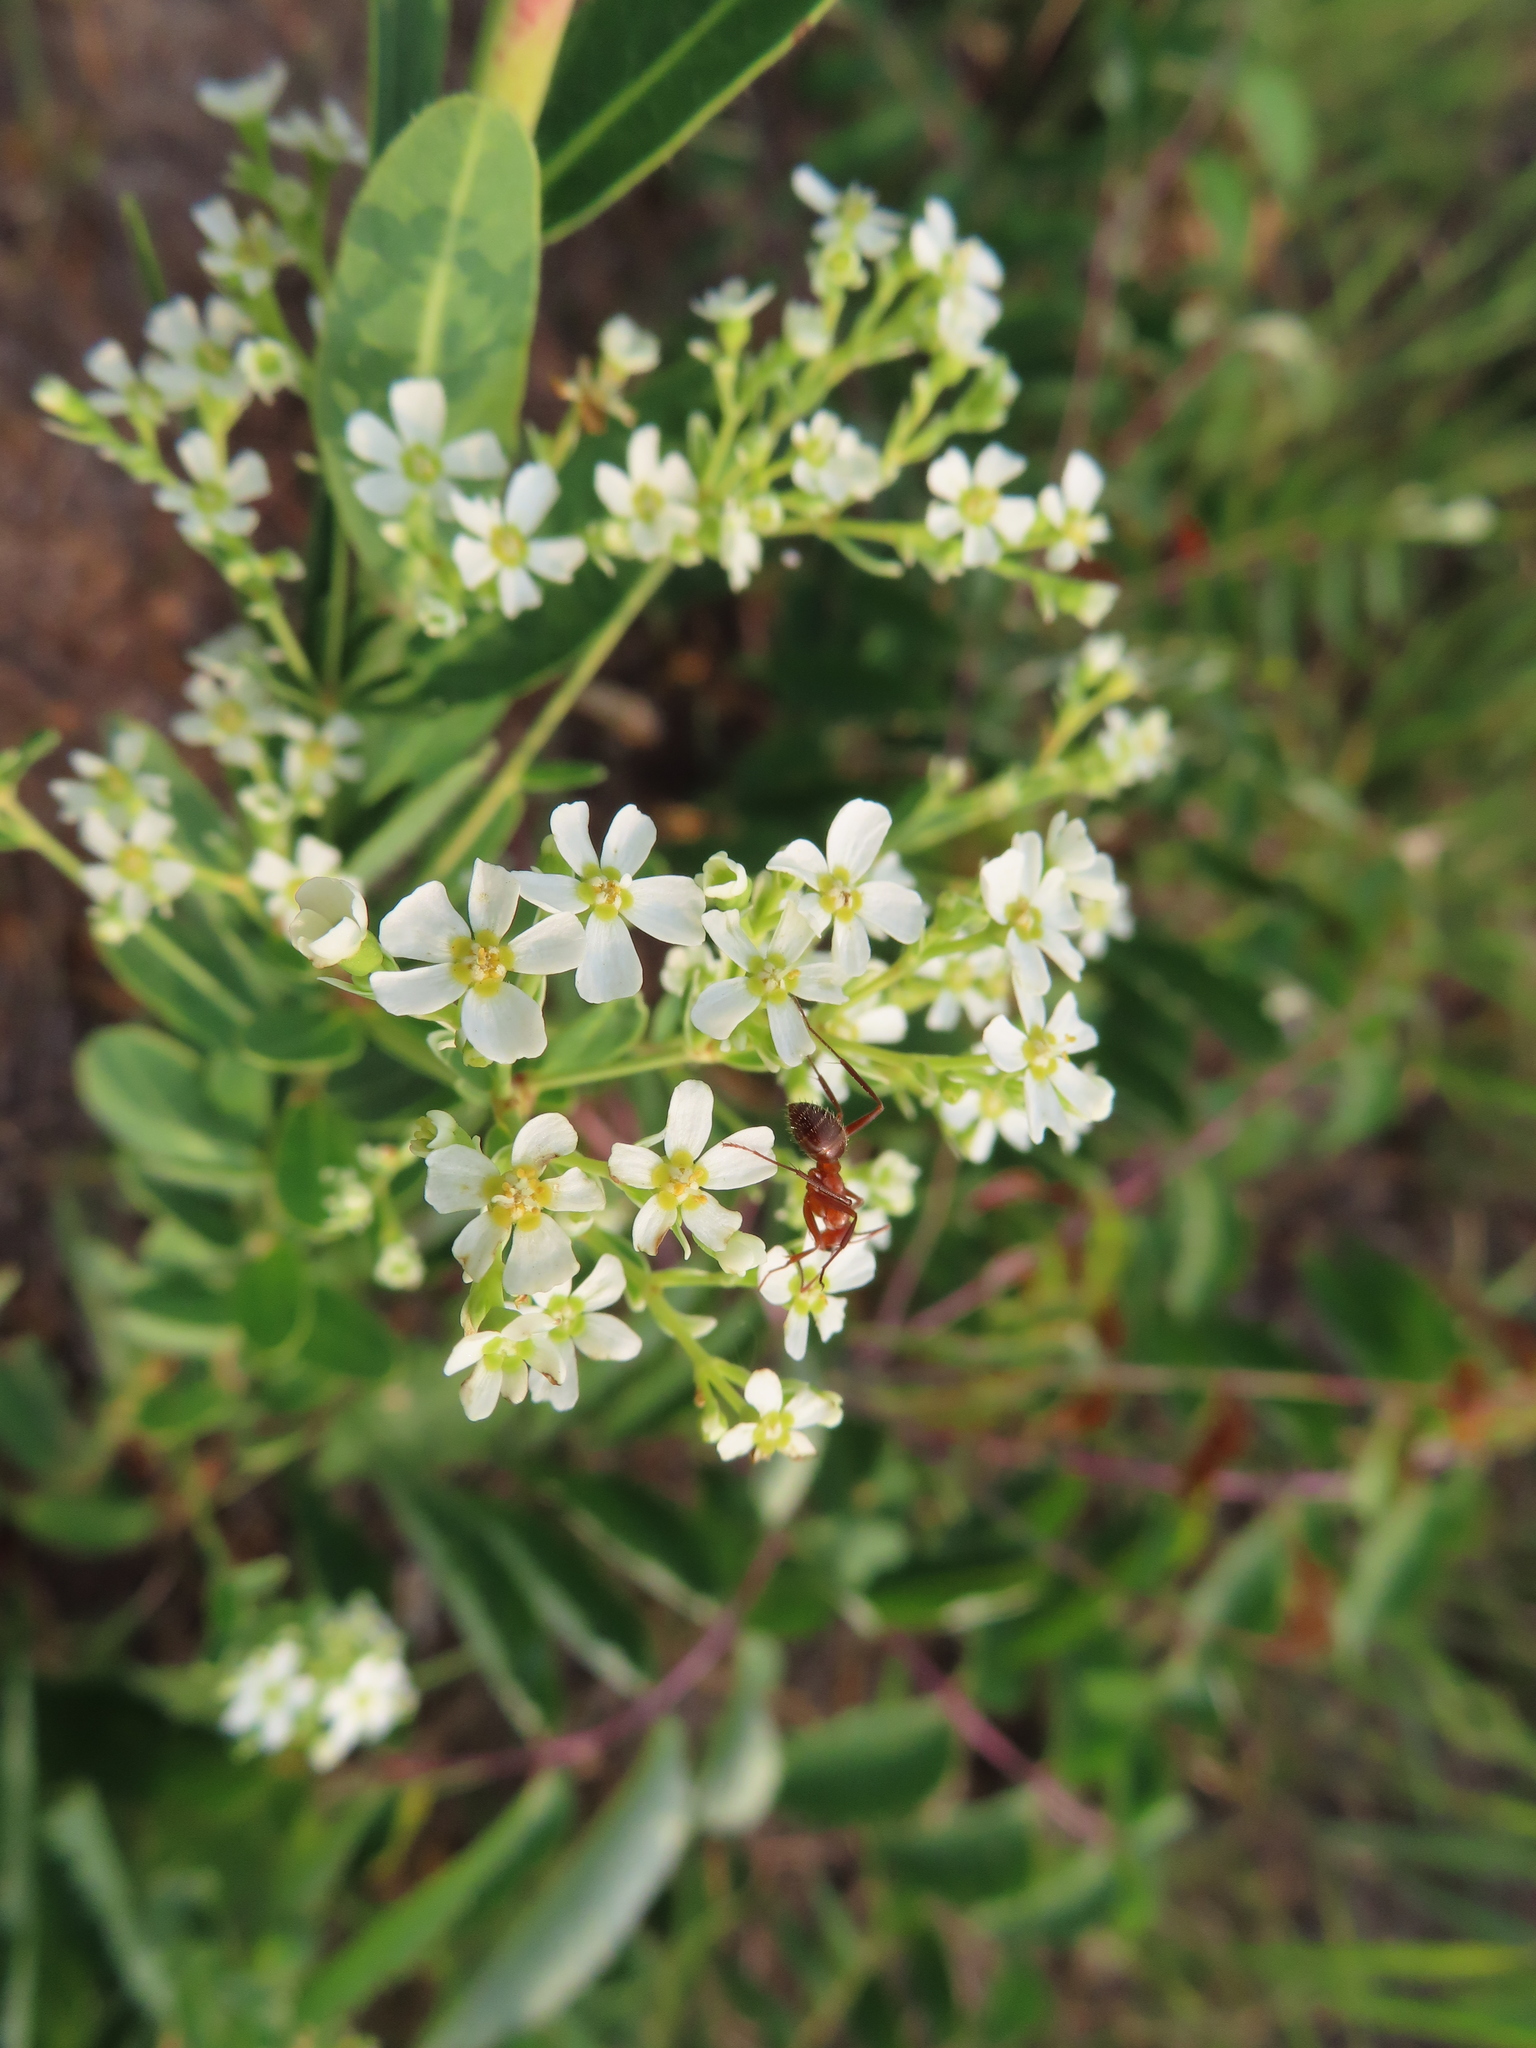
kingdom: Animalia
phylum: Arthropoda
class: Insecta
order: Hymenoptera
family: Formicidae
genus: Formica
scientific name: Formica dolosa
